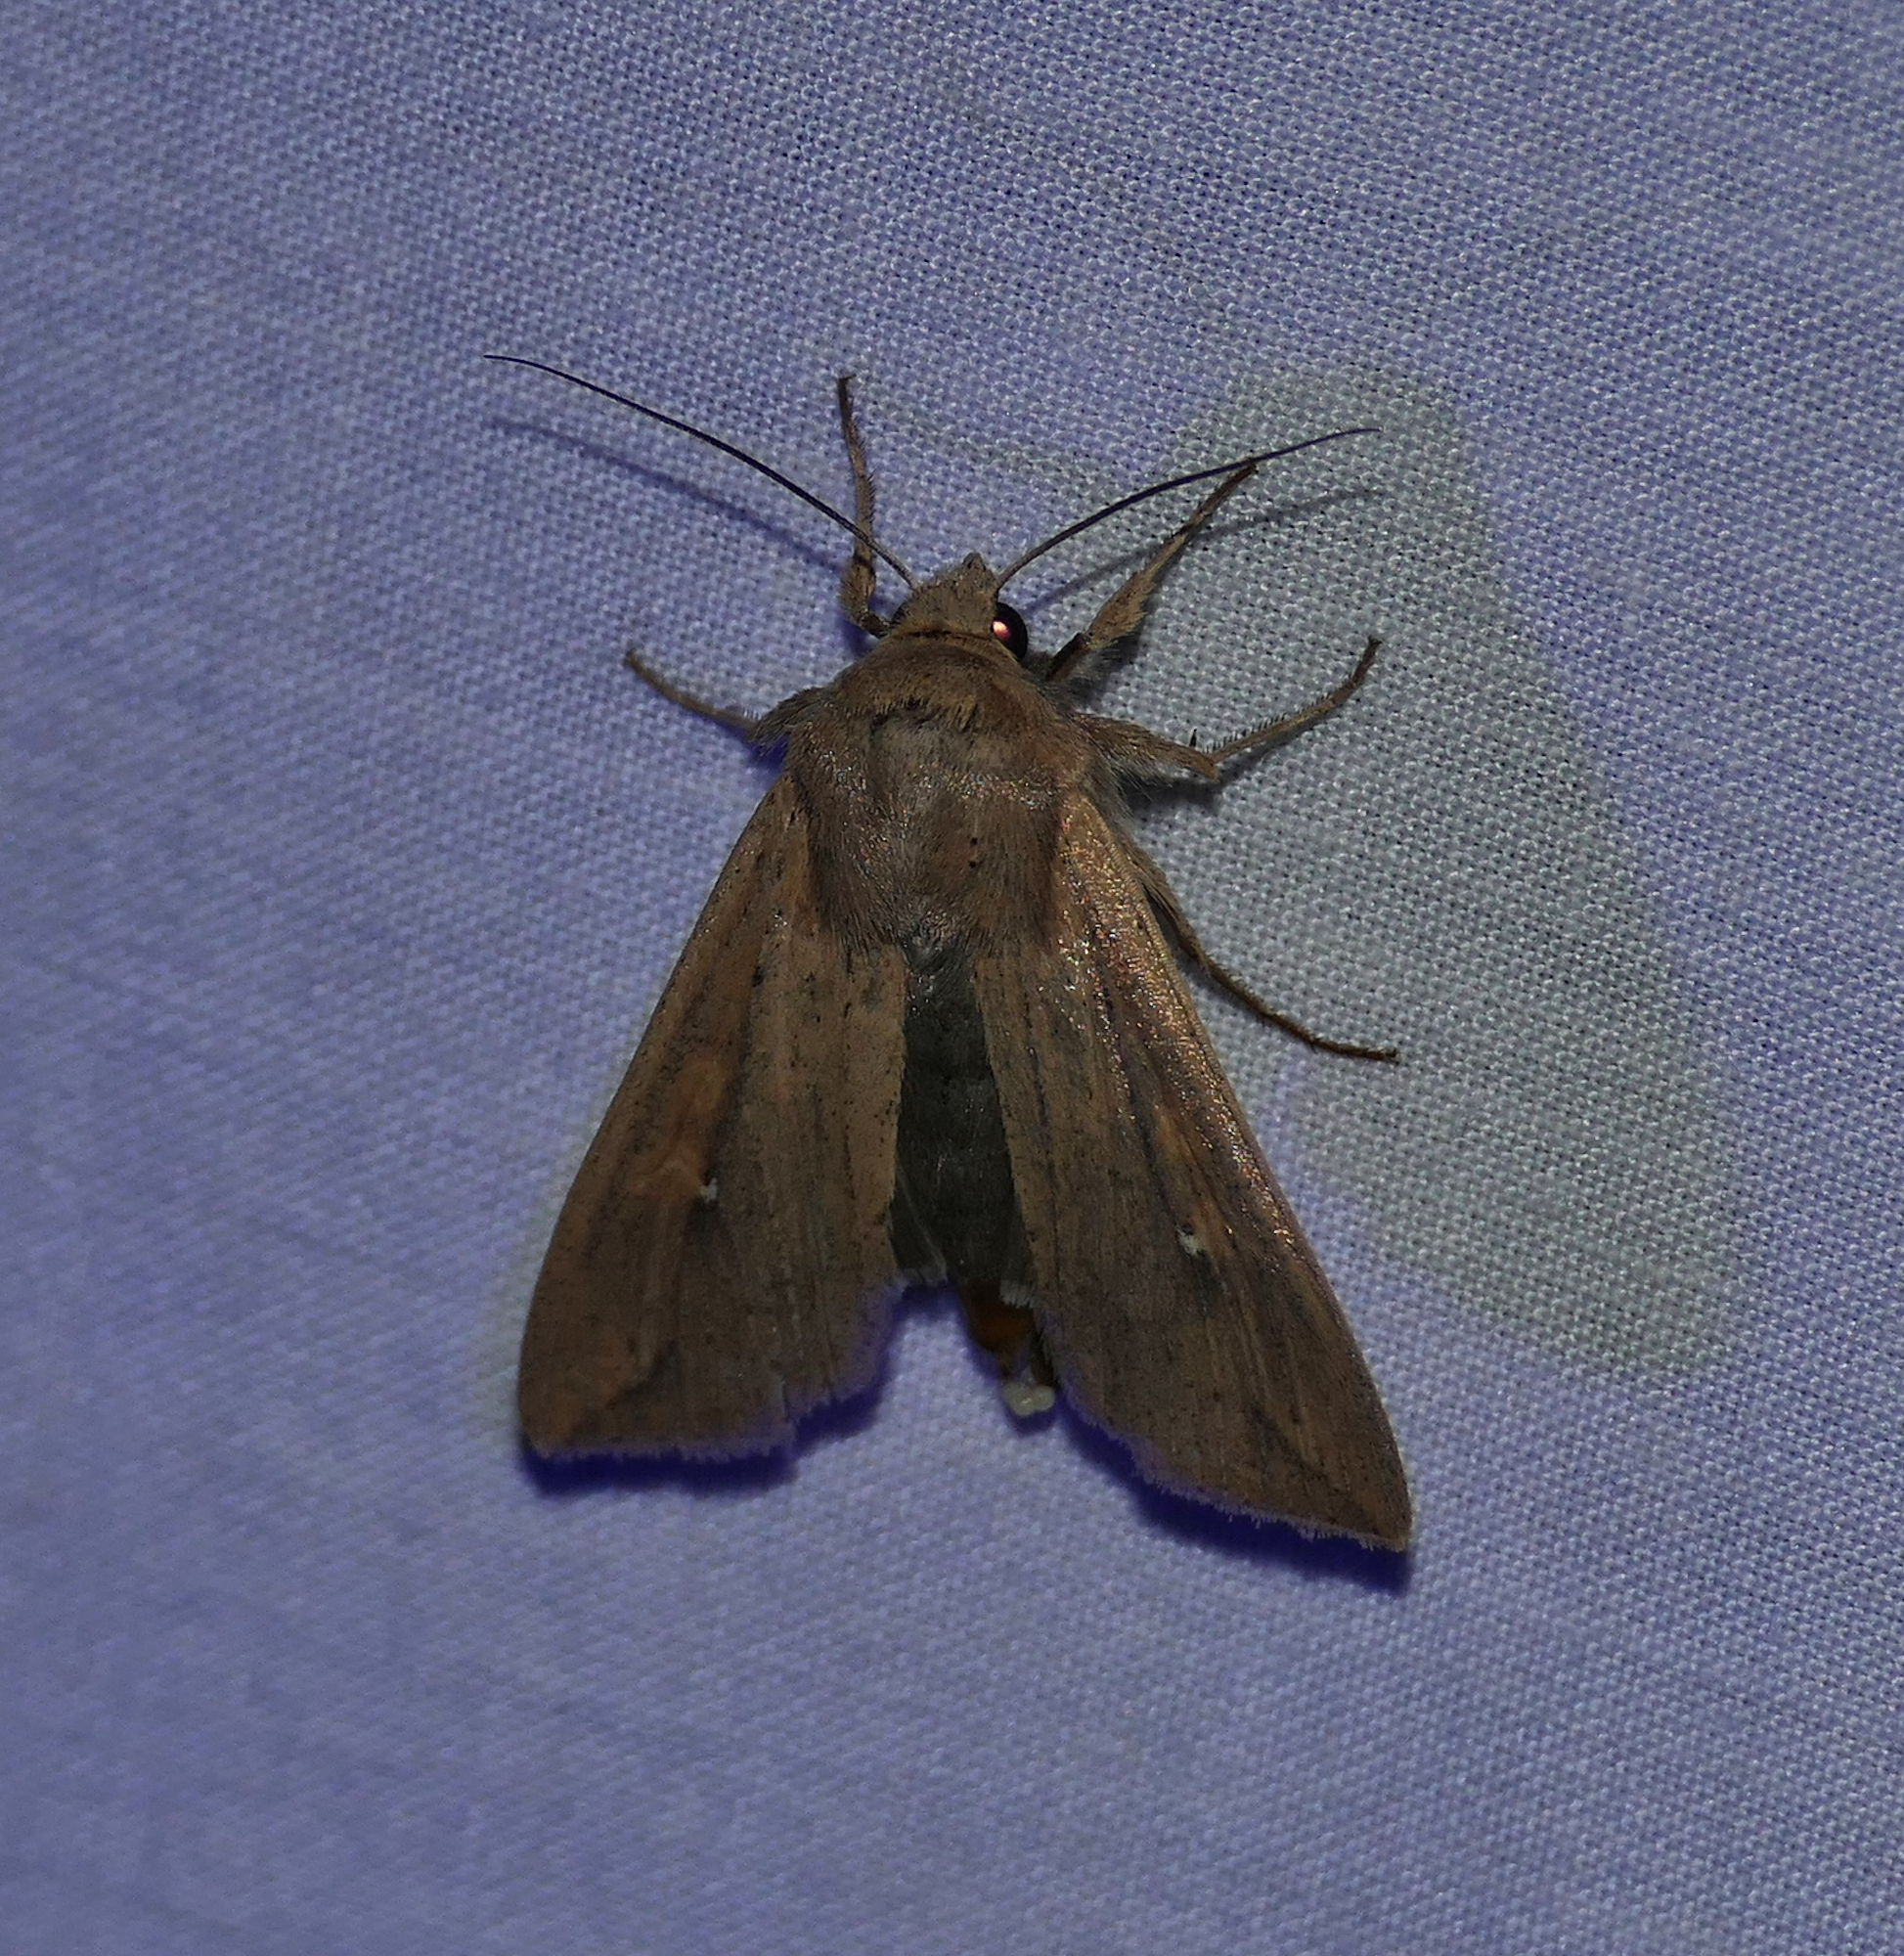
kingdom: Animalia
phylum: Arthropoda
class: Insecta
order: Lepidoptera
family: Noctuidae
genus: Mythimna
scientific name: Mythimna unipuncta
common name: White-speck
